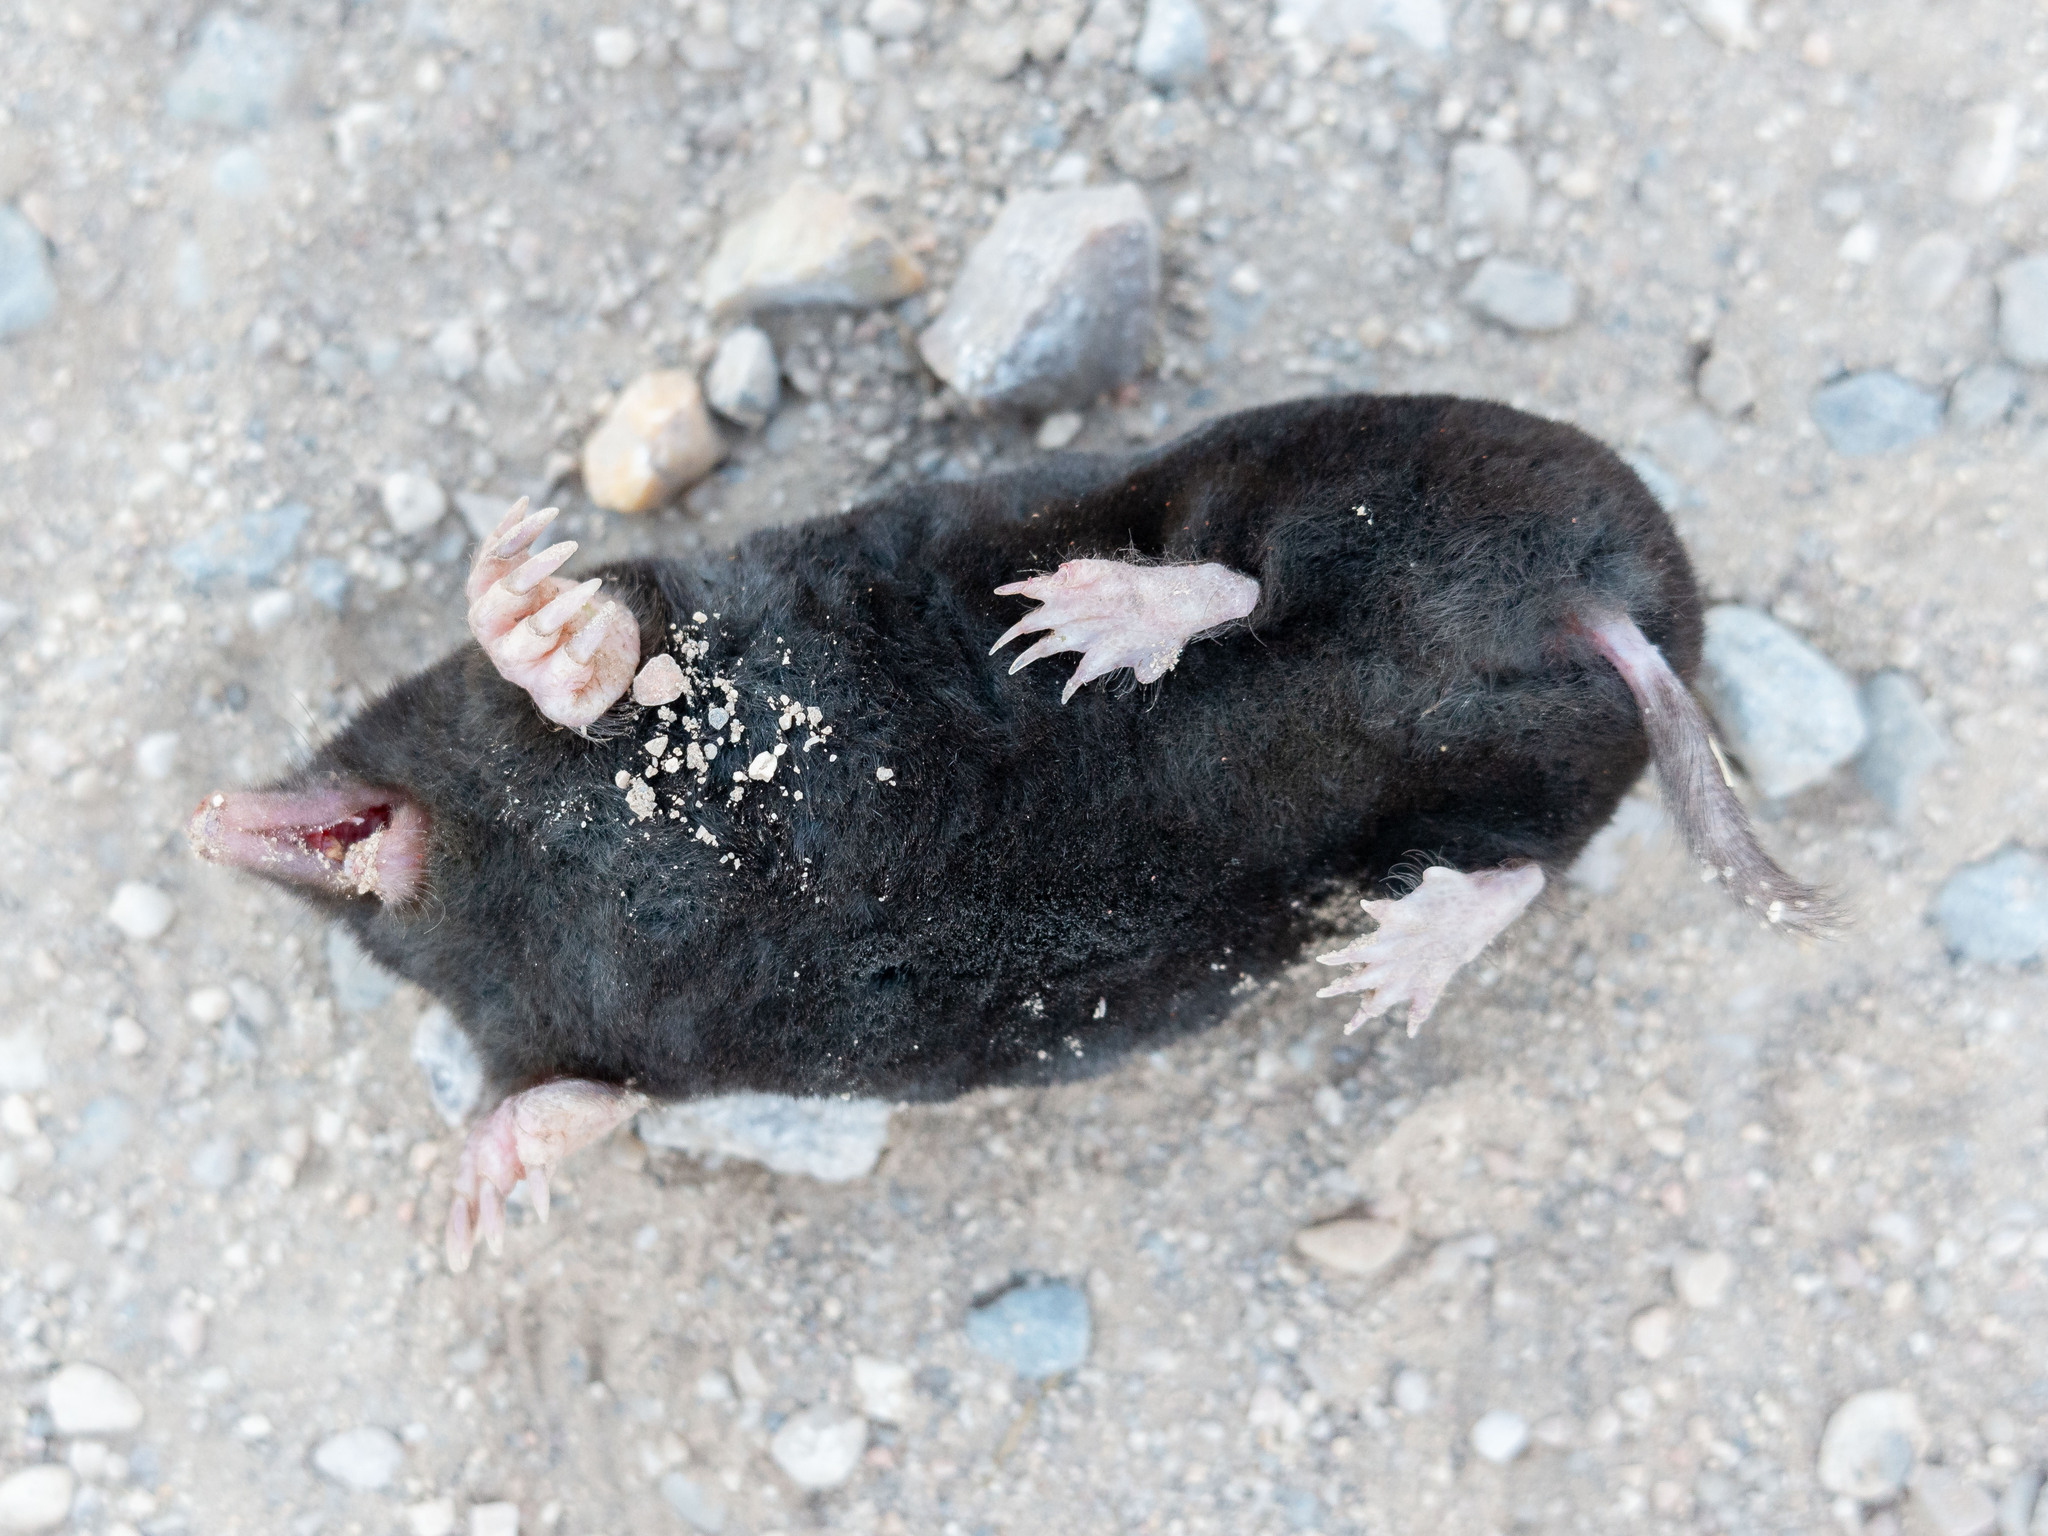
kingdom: Animalia
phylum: Chordata
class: Mammalia
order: Soricomorpha
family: Talpidae
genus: Talpa
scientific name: Talpa occidentalis
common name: Iberian mole
